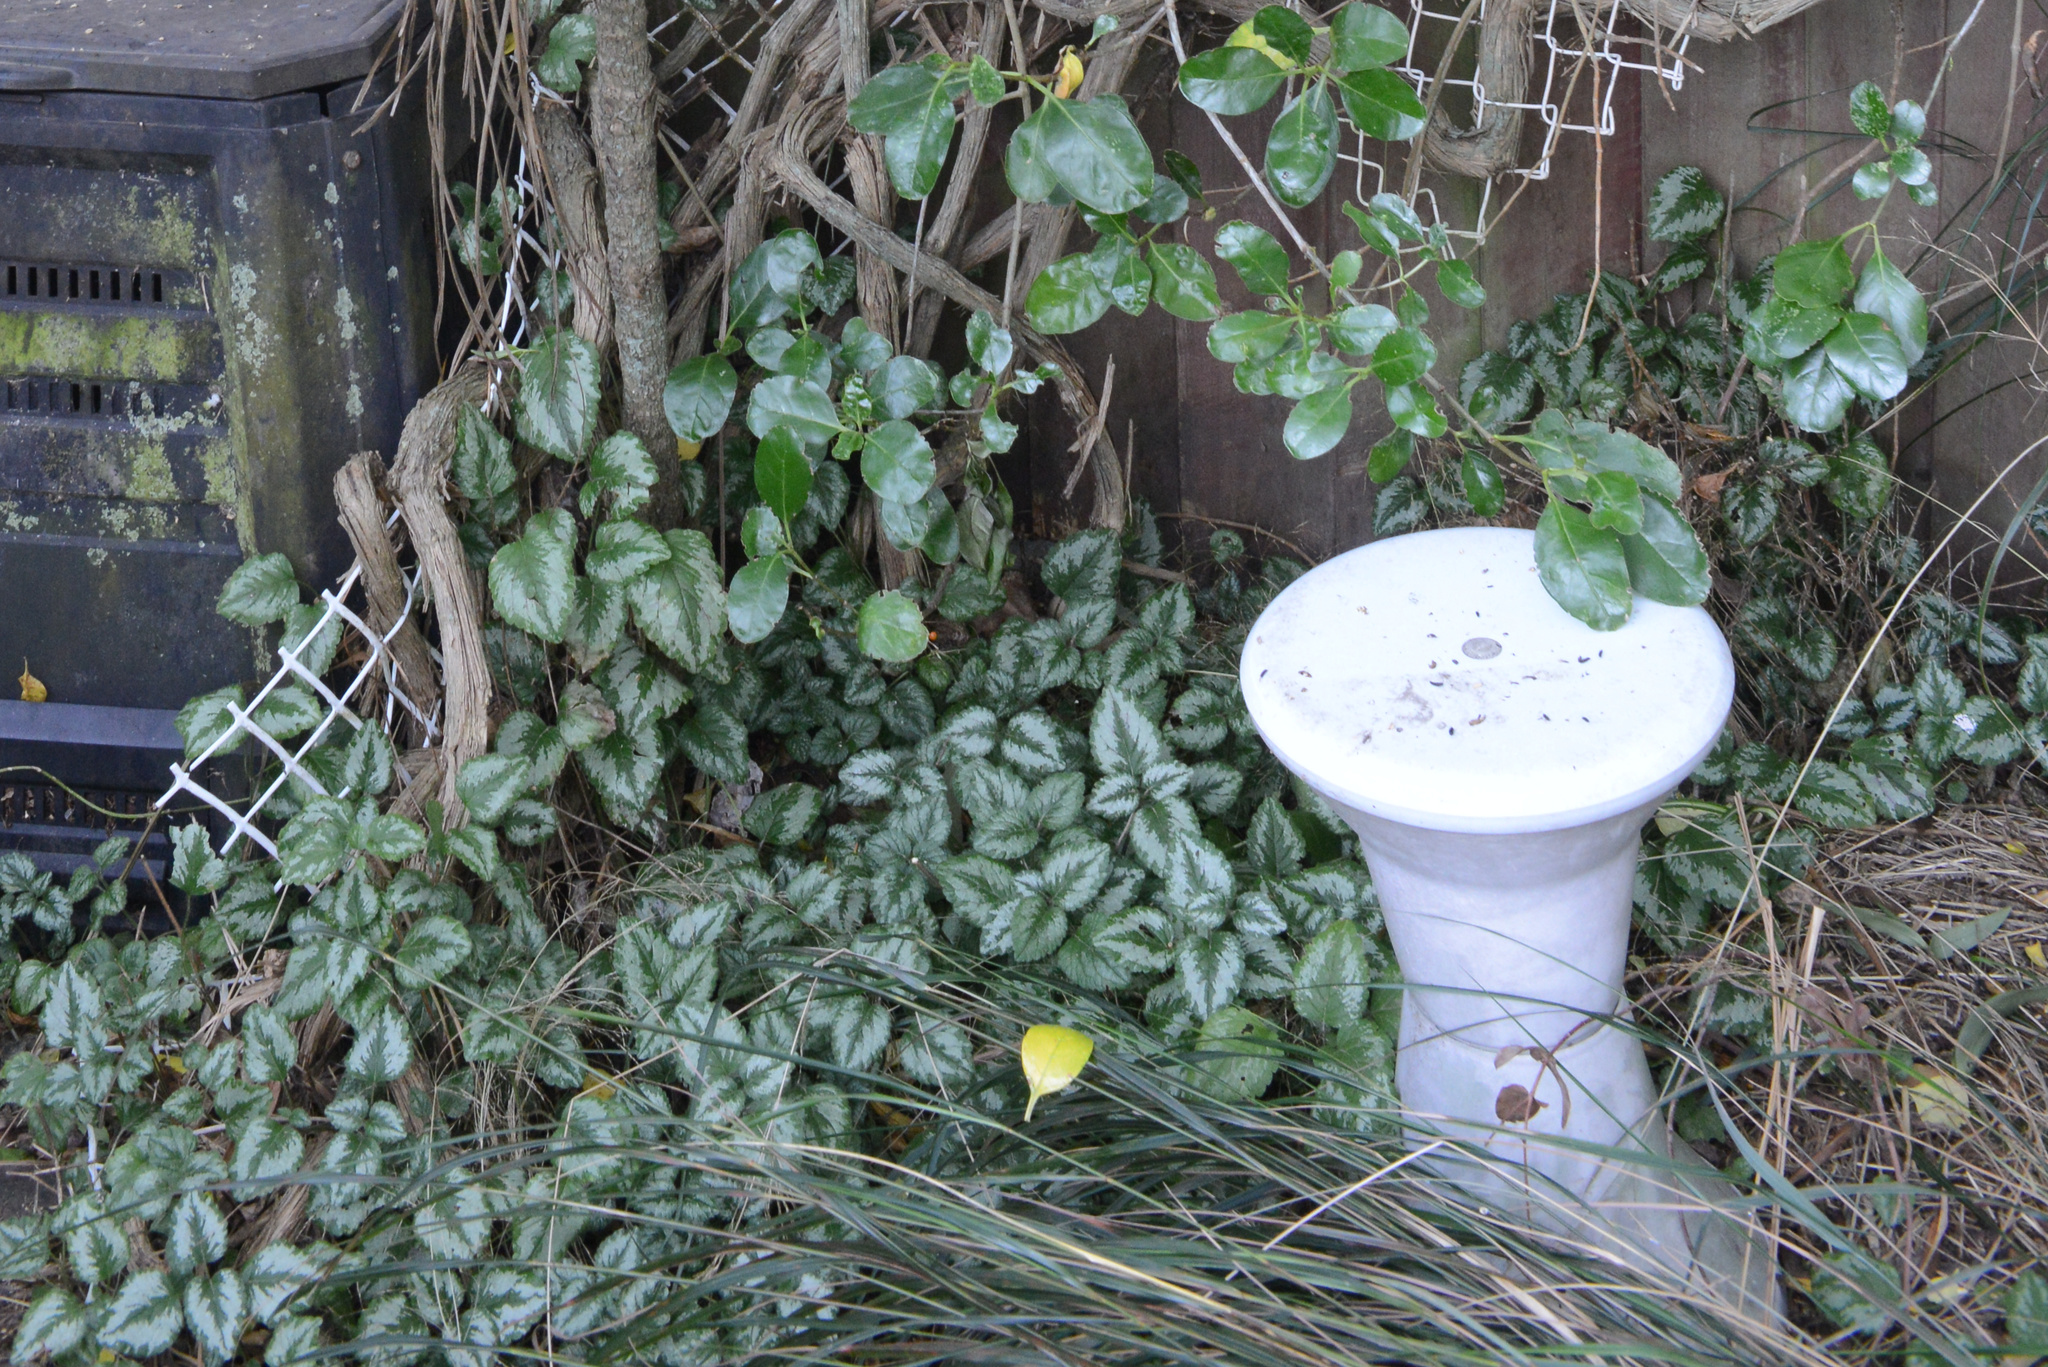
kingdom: Plantae
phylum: Tracheophyta
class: Magnoliopsida
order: Lamiales
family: Lamiaceae
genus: Lamium
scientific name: Lamium galeobdolon
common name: Yellow archangel
